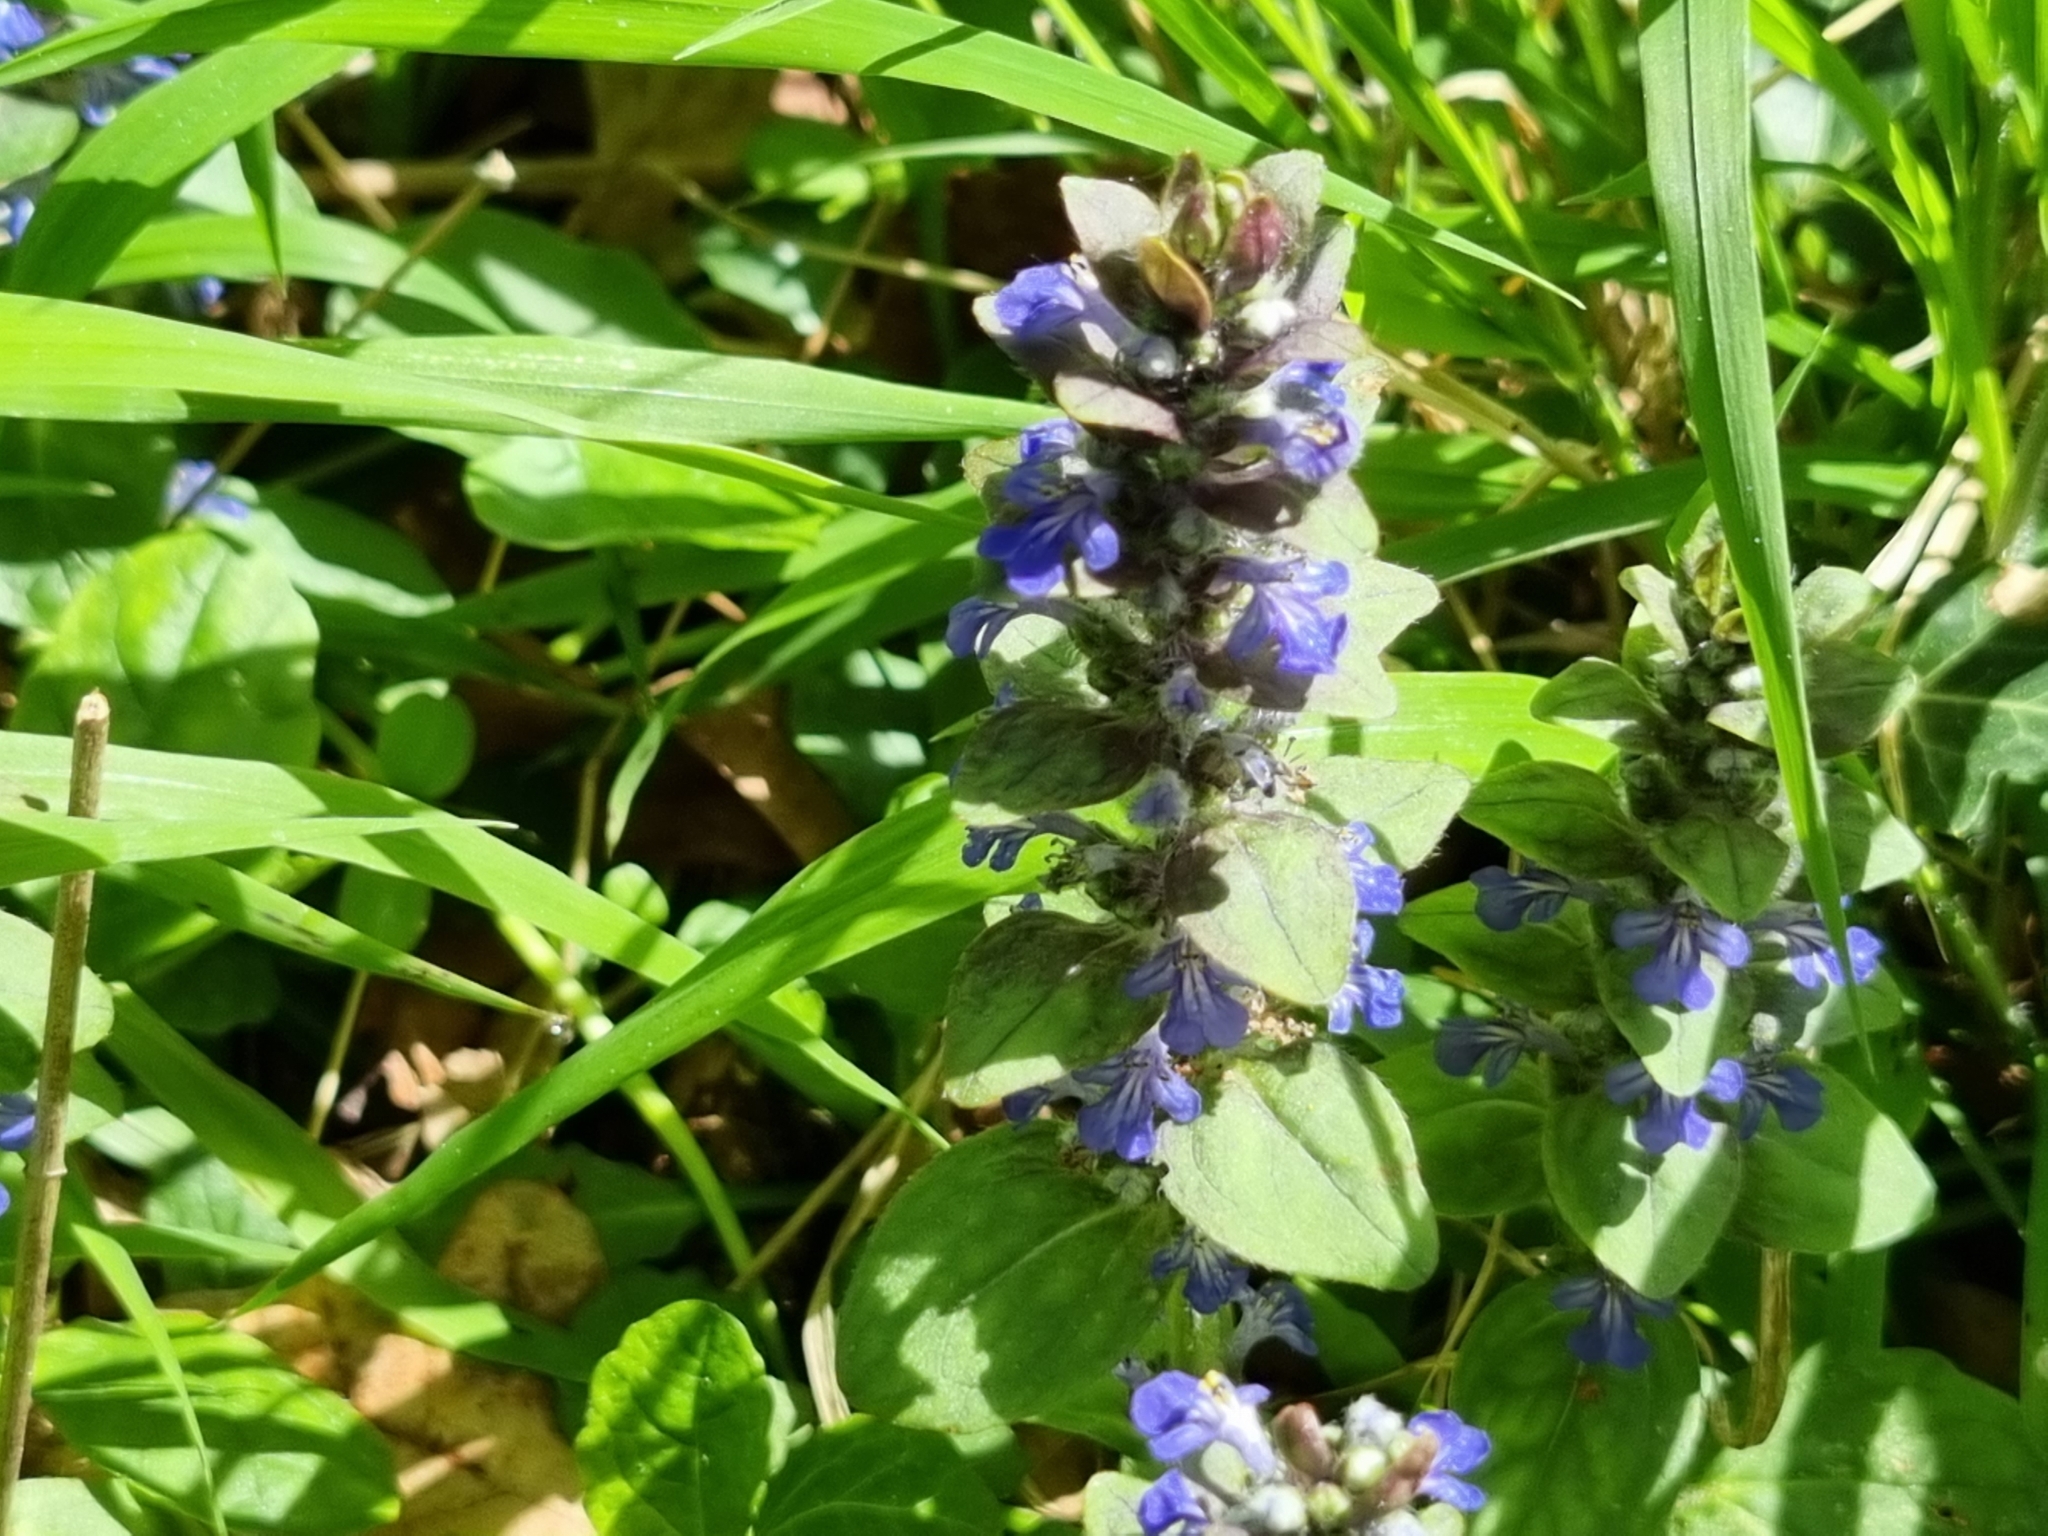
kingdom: Plantae
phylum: Tracheophyta
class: Magnoliopsida
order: Lamiales
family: Lamiaceae
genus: Ajuga
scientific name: Ajuga reptans
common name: Bugle
